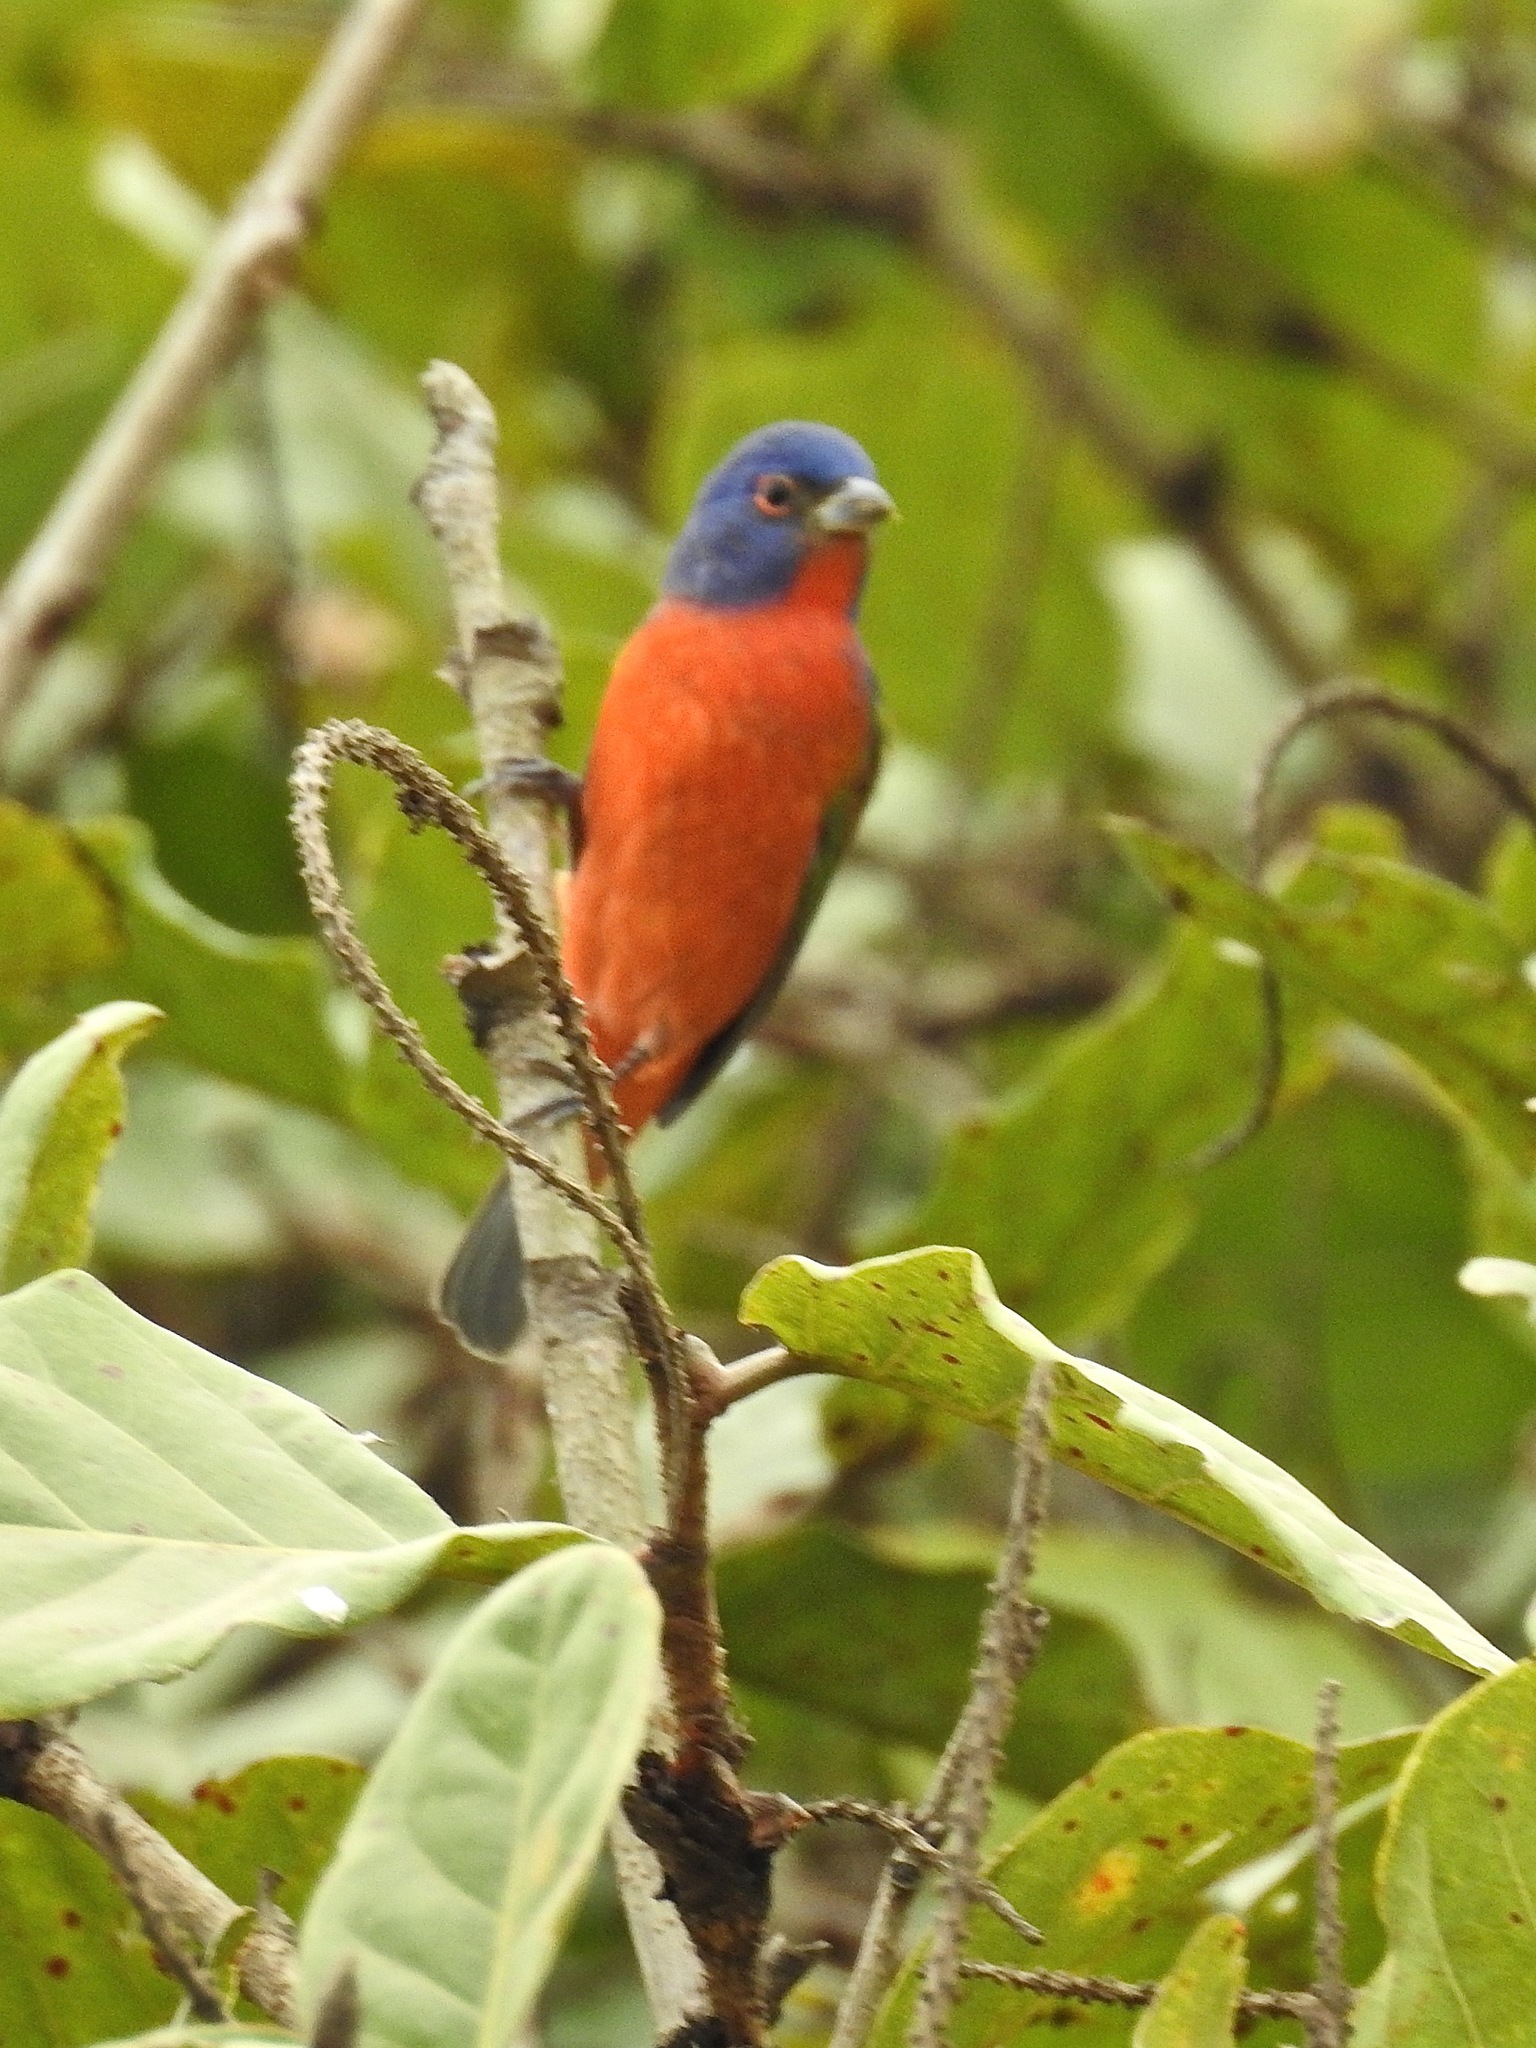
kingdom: Animalia
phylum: Chordata
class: Aves
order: Passeriformes
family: Cardinalidae
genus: Passerina
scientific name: Passerina ciris
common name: Painted bunting
